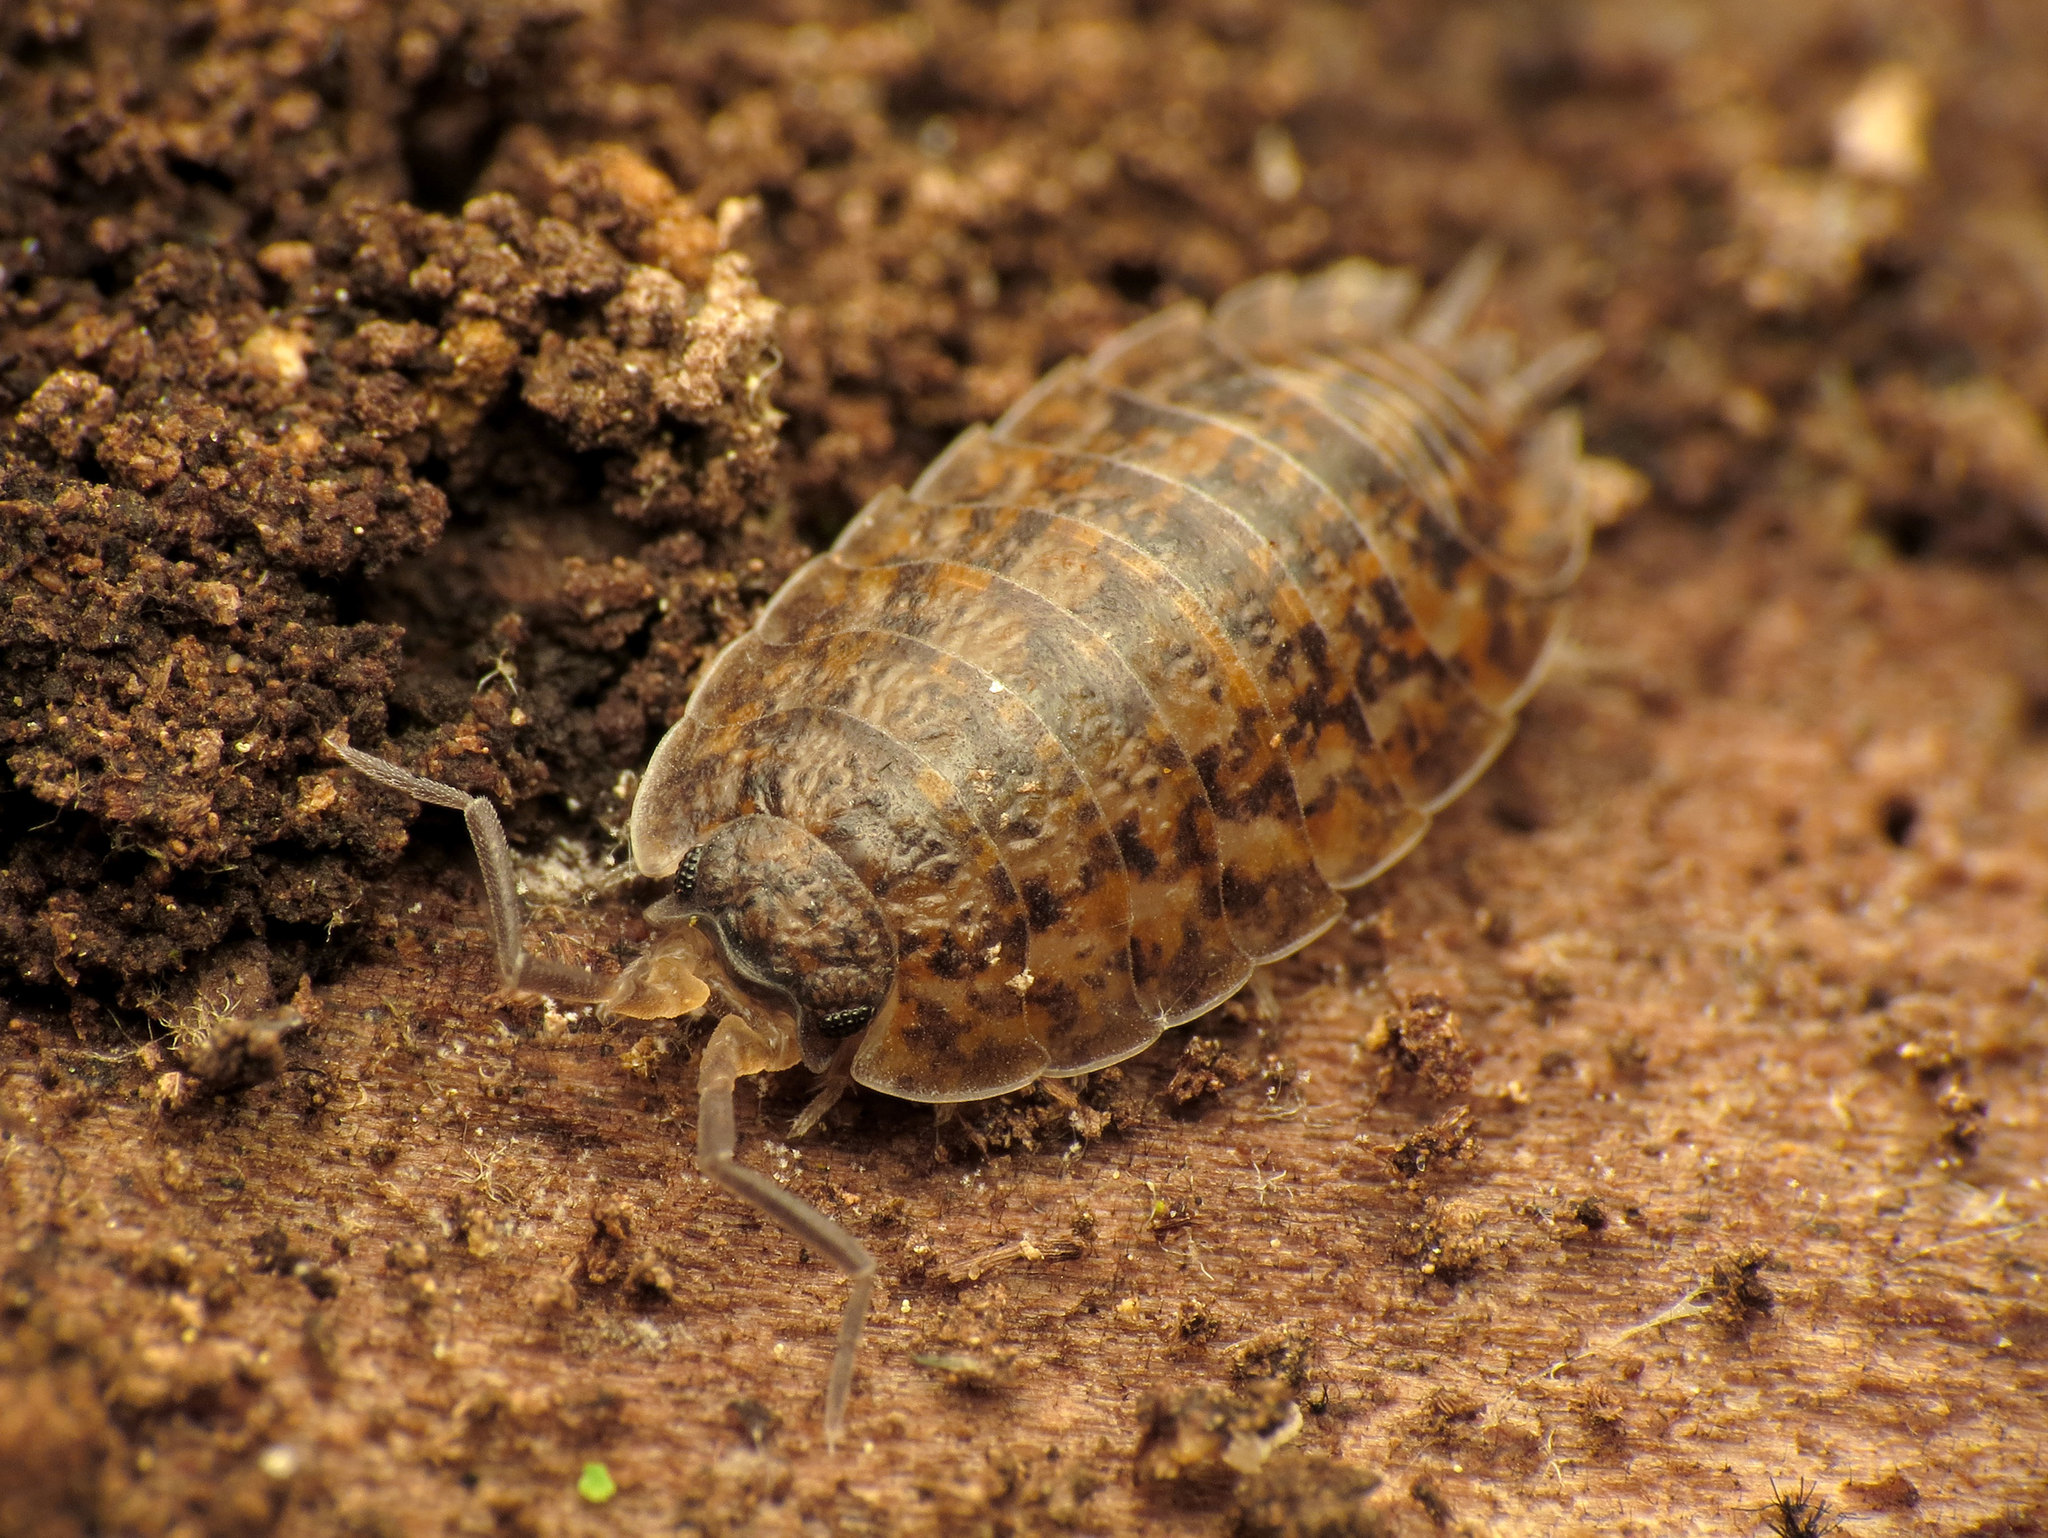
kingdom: Animalia
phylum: Arthropoda
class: Malacostraca
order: Isopoda
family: Trachelipodidae
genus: Trachelipus
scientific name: Trachelipus rathkii
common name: Isopod
